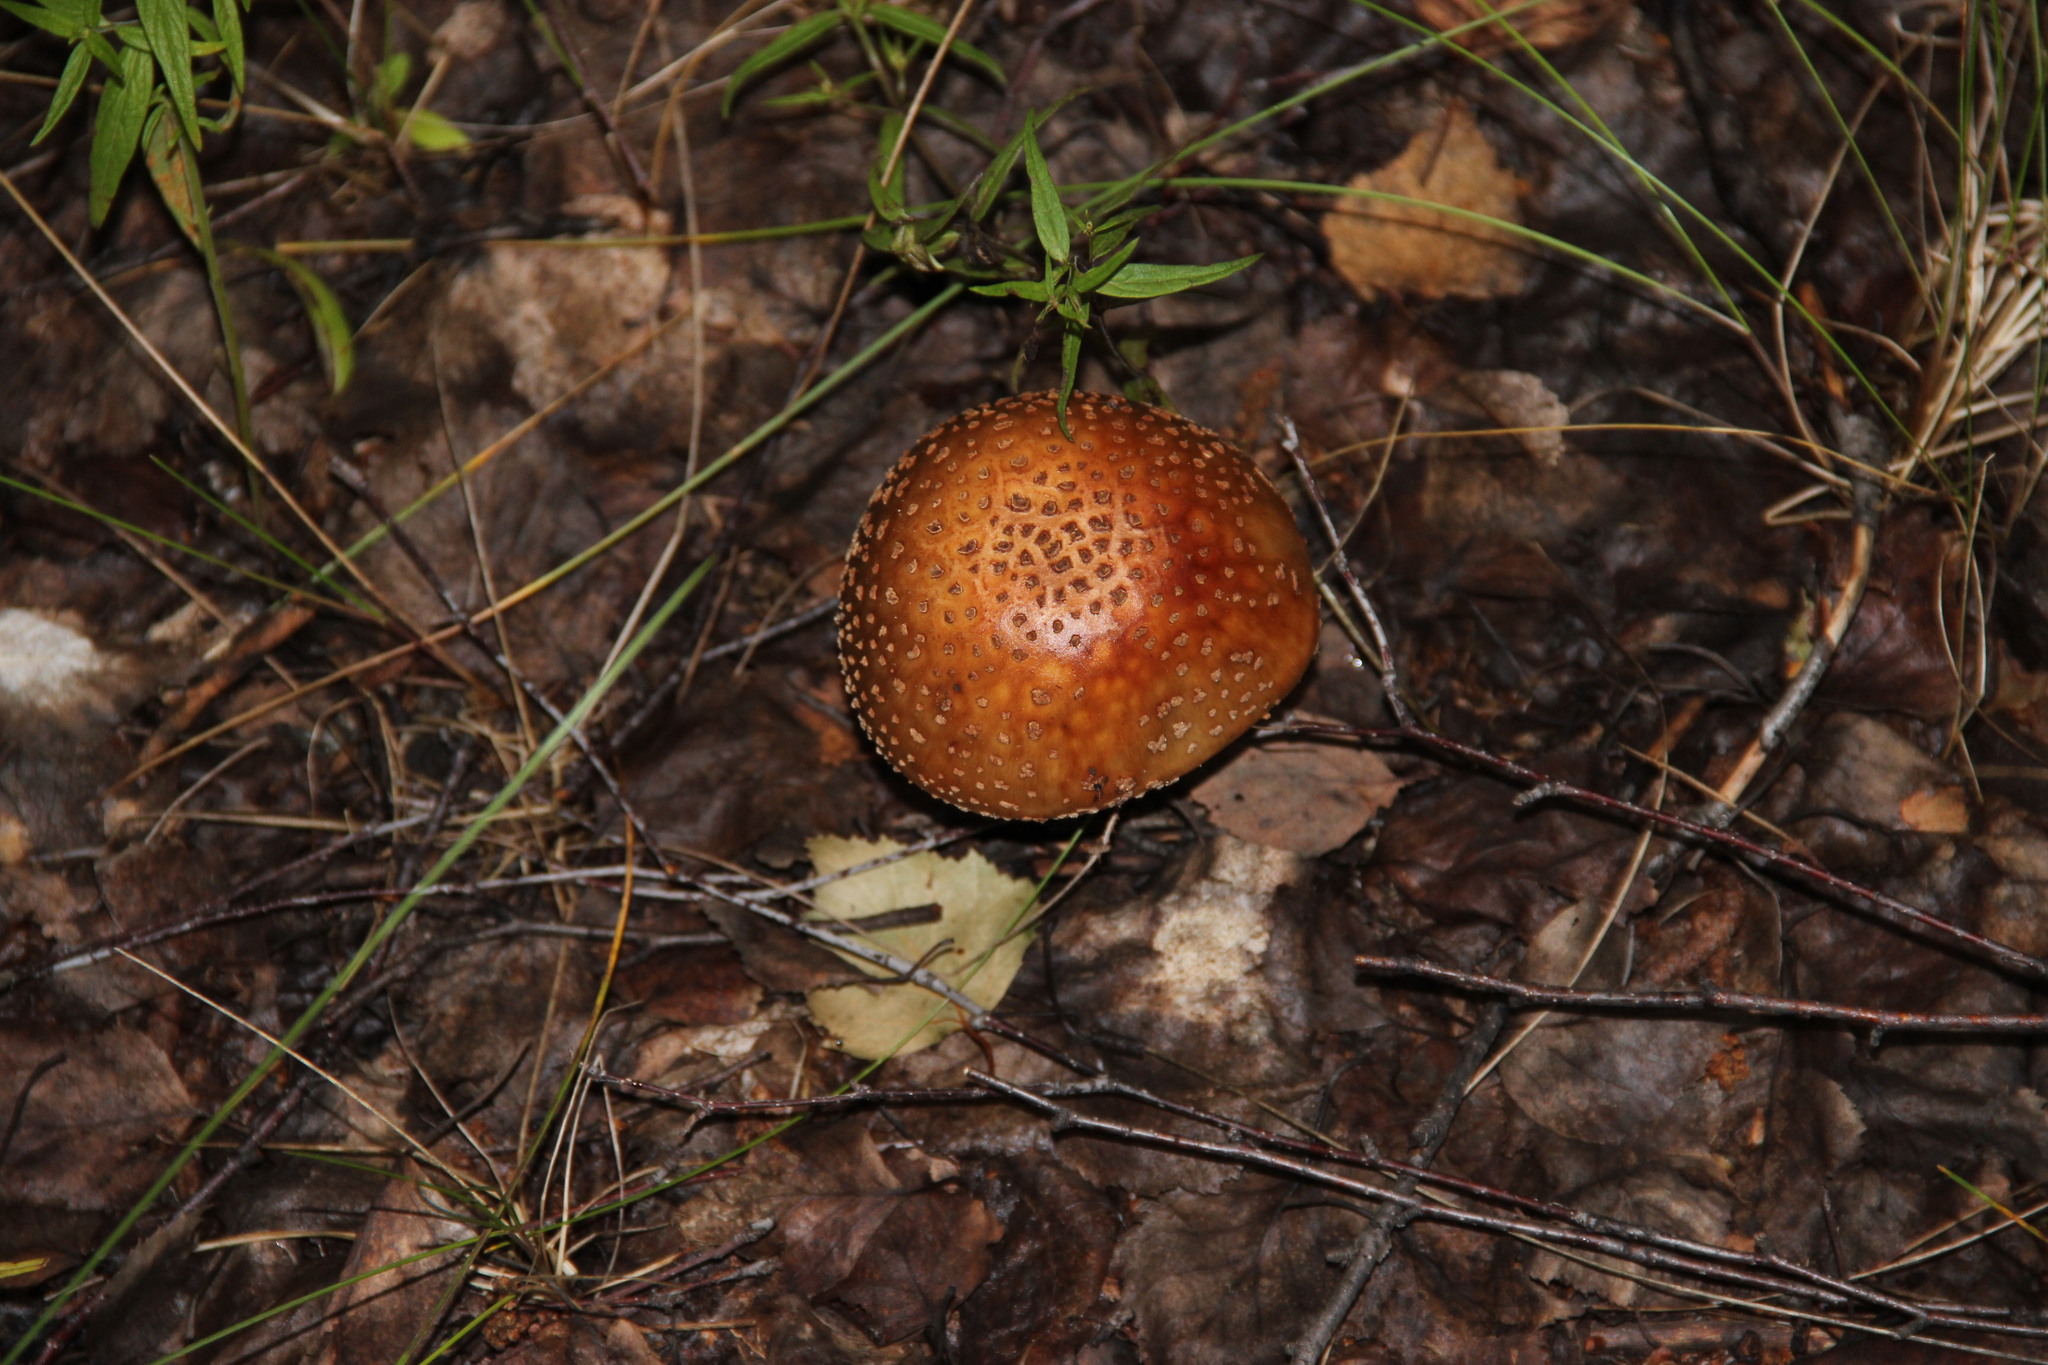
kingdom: Fungi
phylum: Basidiomycota
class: Agaricomycetes
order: Agaricales
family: Amanitaceae
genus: Amanita
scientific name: Amanita rubescens
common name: Blusher
